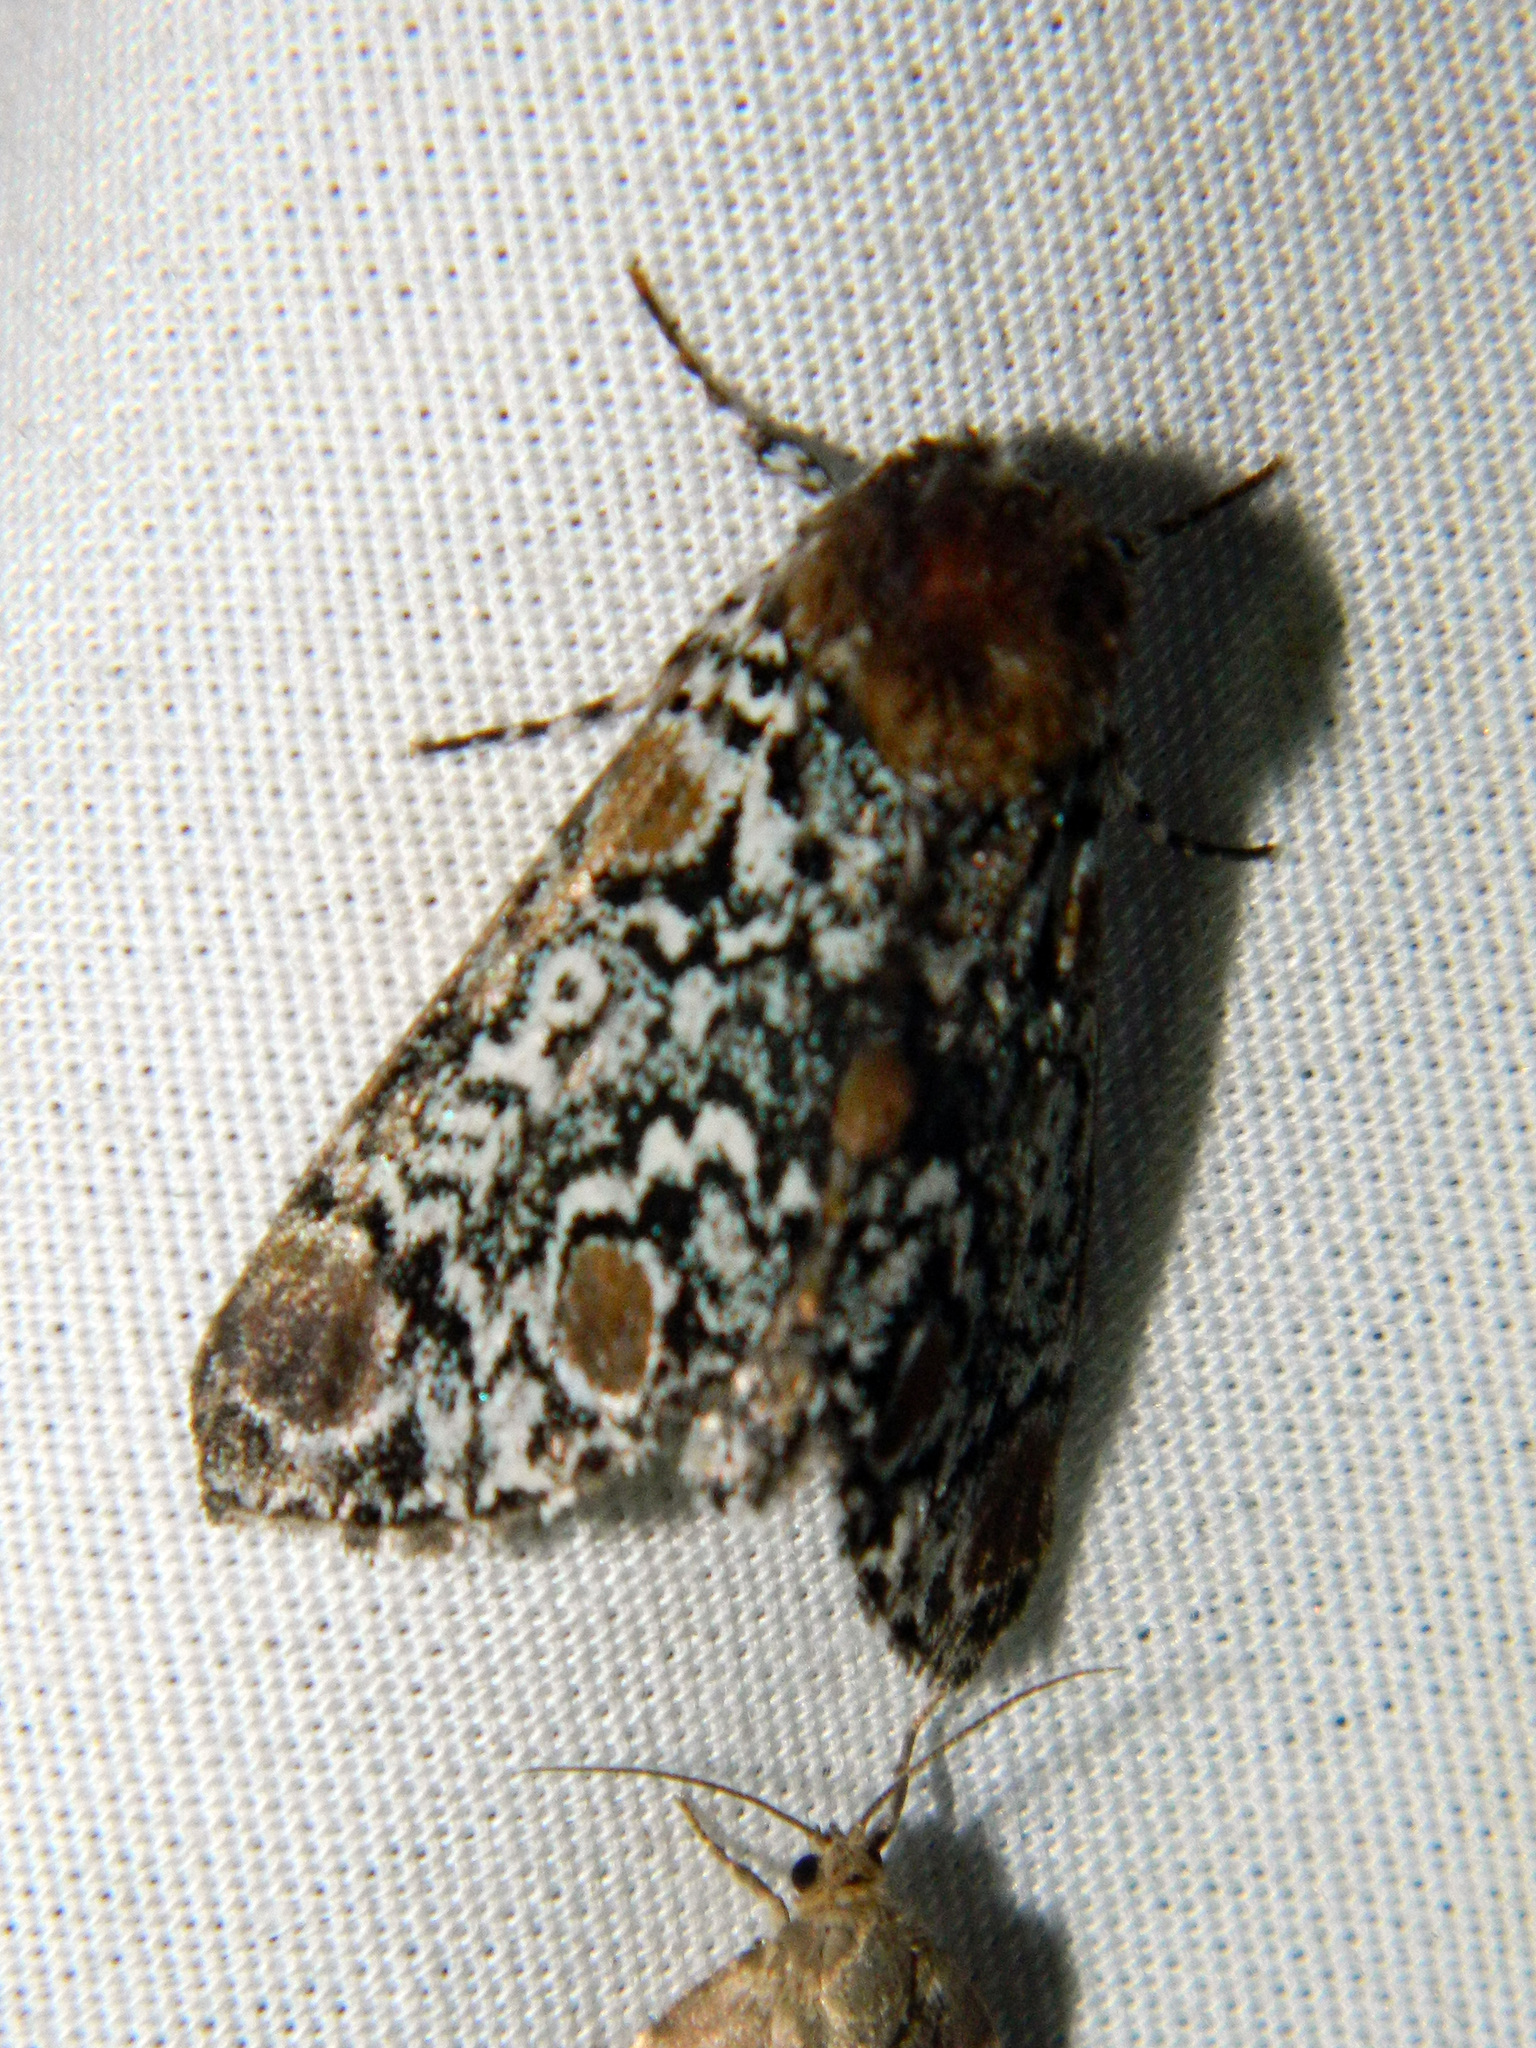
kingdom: Animalia
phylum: Arthropoda
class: Insecta
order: Lepidoptera
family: Noctuidae
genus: Harrisimemna
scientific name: Harrisimemna trisignata
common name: Harris threespot
